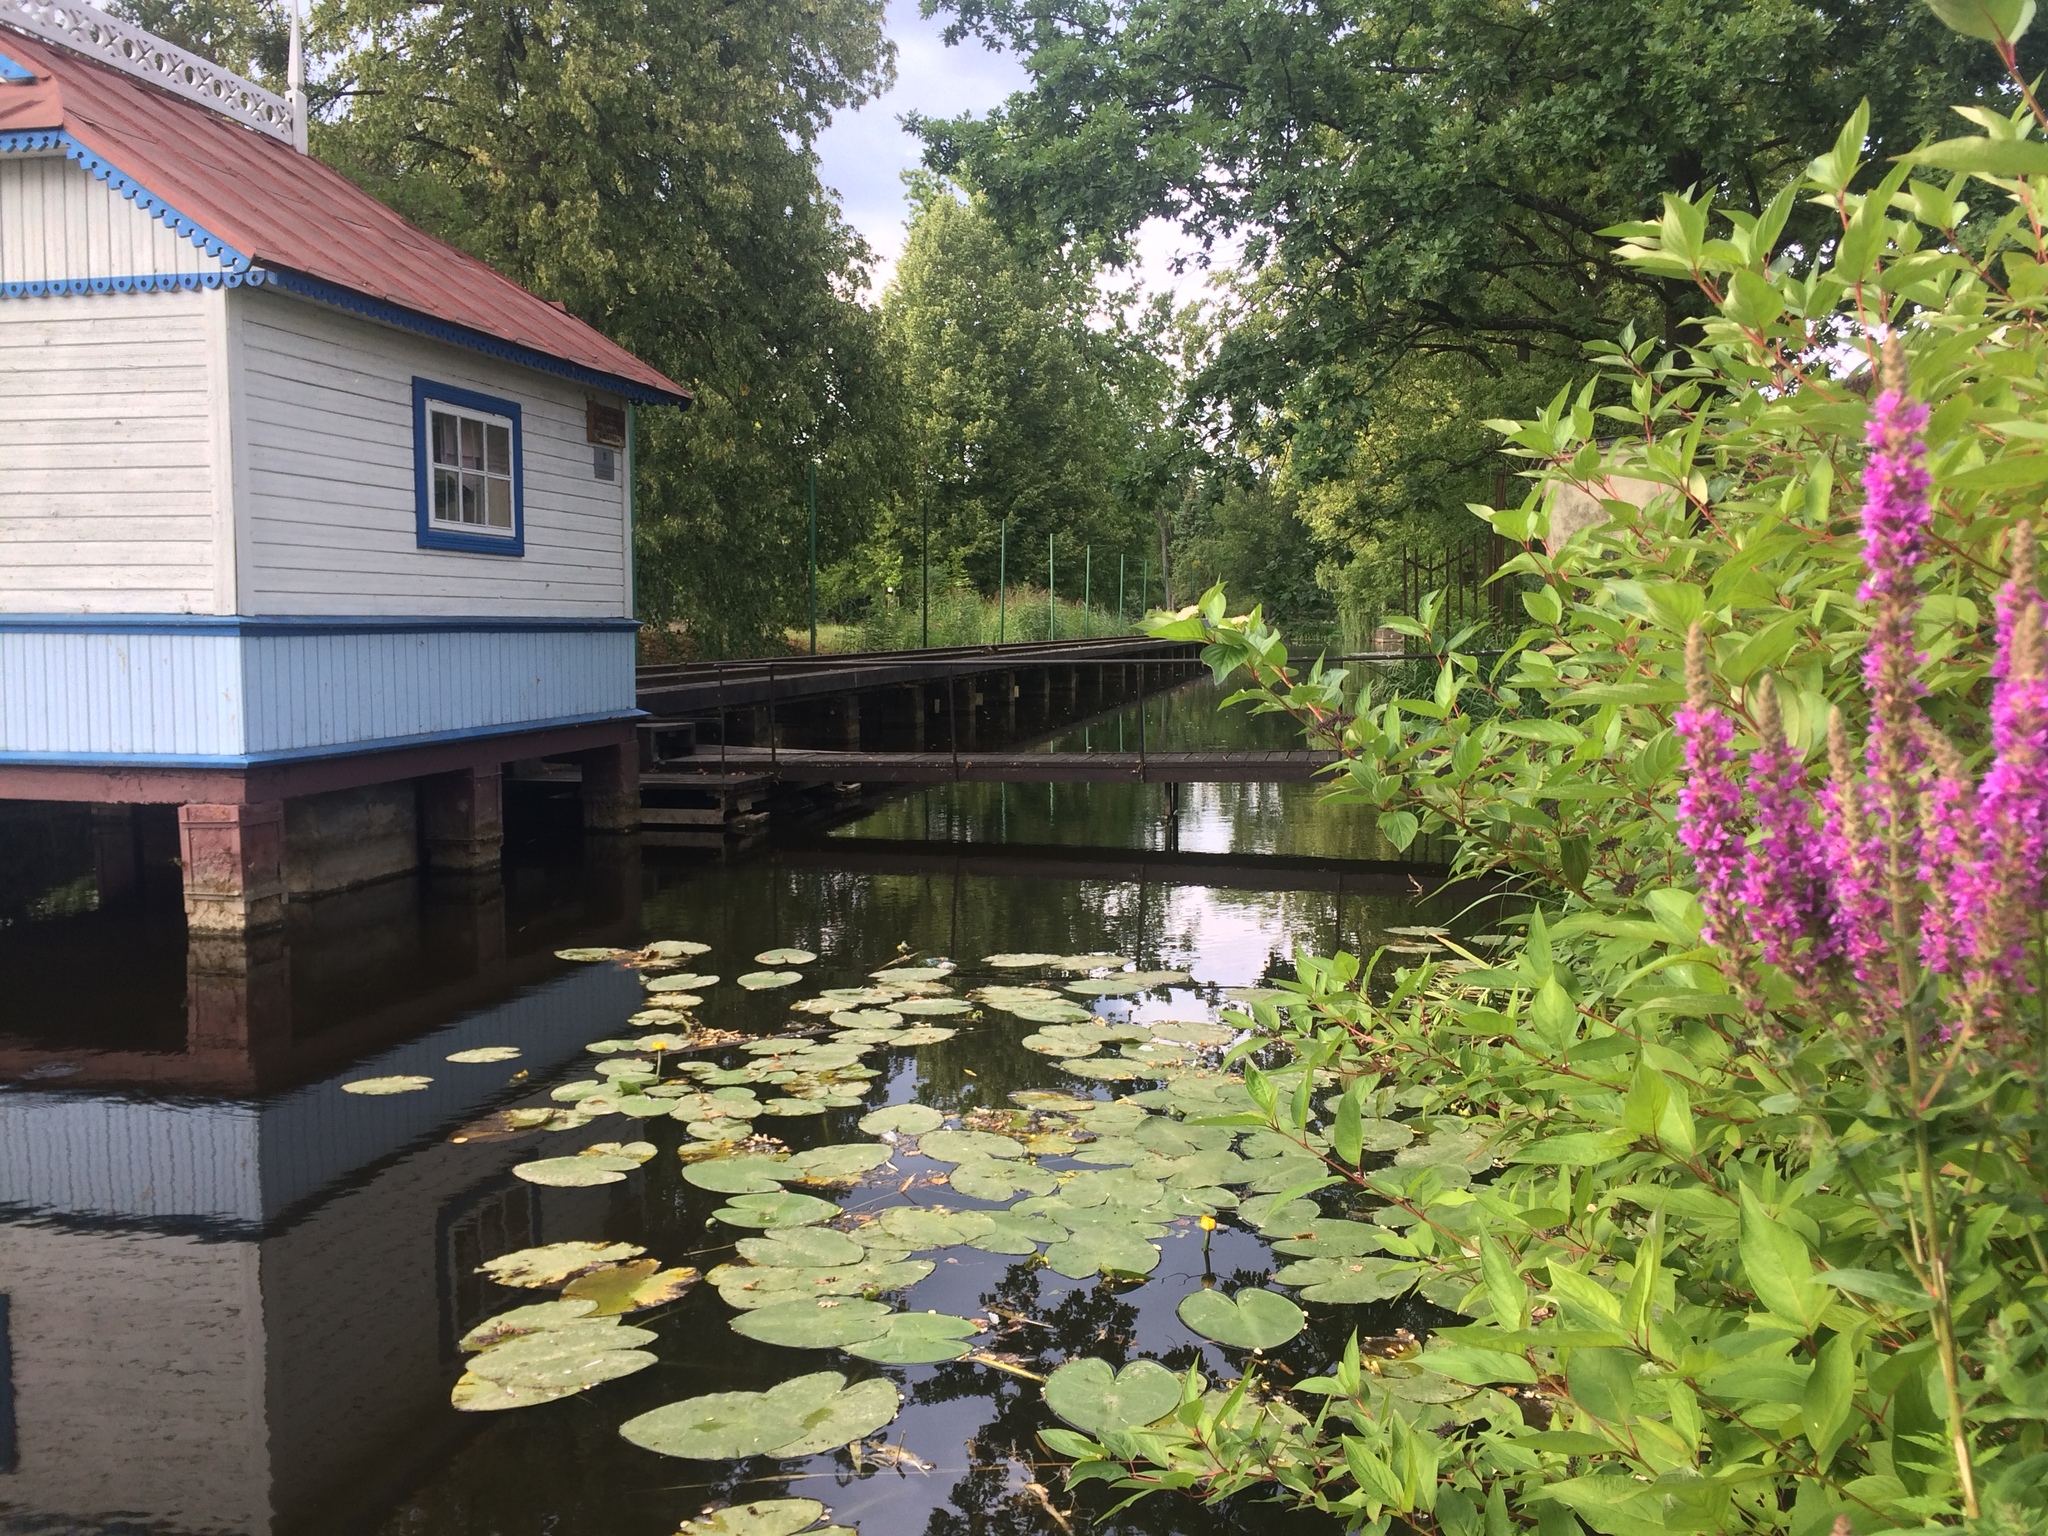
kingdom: Plantae
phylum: Tracheophyta
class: Magnoliopsida
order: Myrtales
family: Lythraceae
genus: Lythrum
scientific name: Lythrum salicaria
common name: Purple loosestrife
